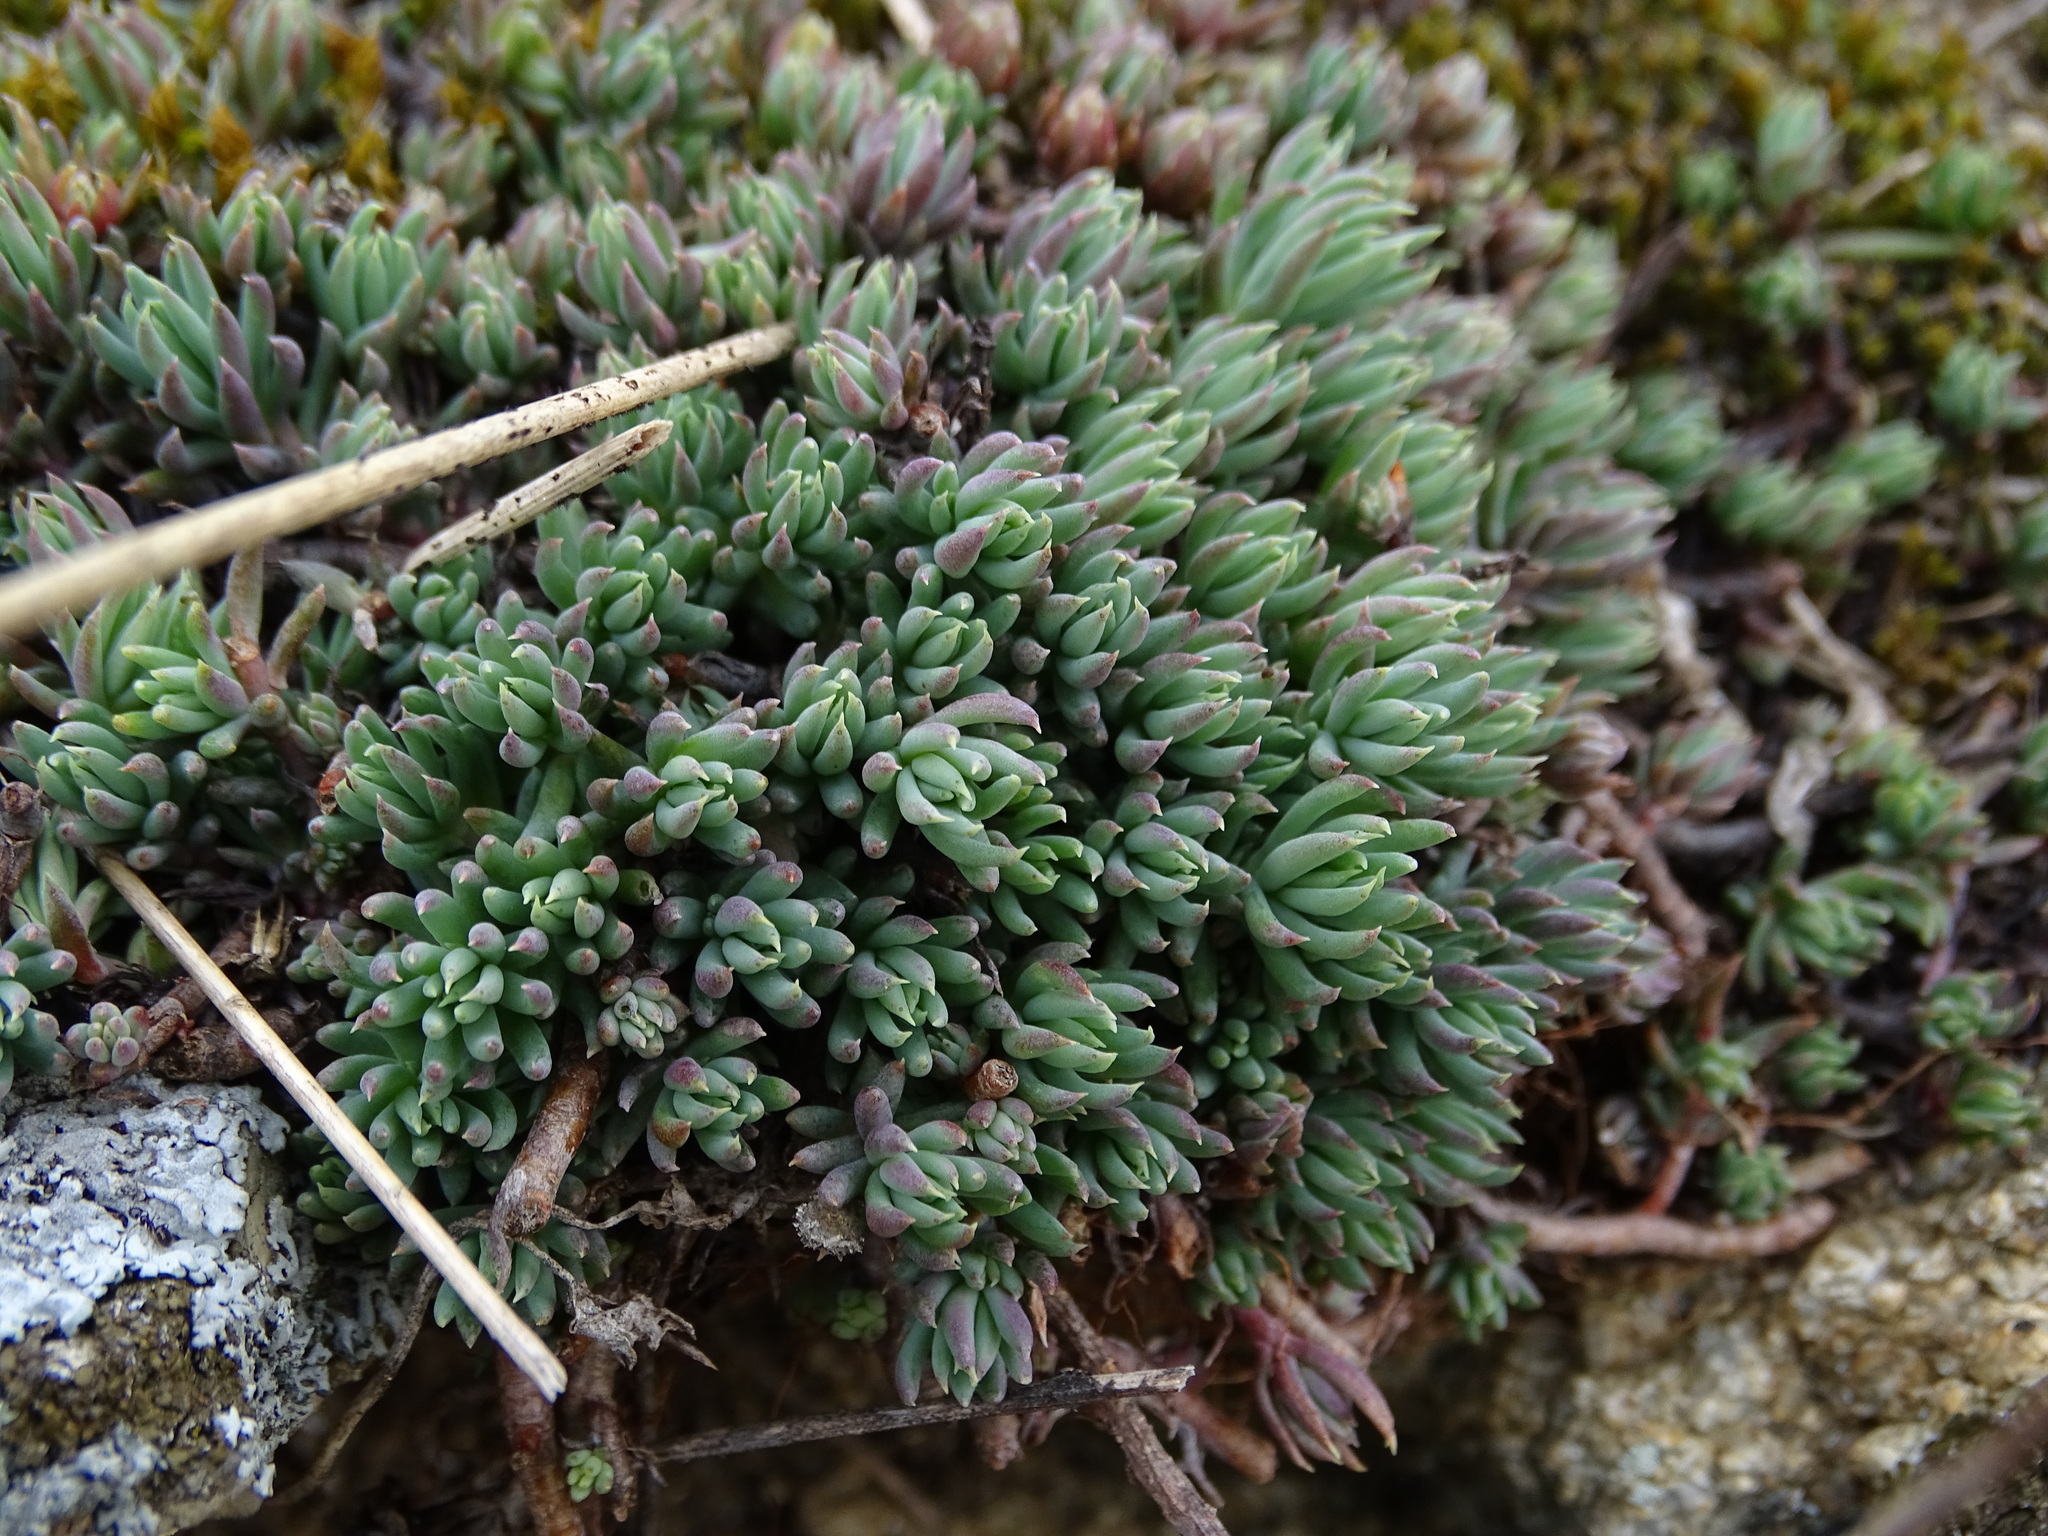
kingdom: Plantae
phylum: Tracheophyta
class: Magnoliopsida
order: Saxifragales
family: Crassulaceae
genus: Petrosedum
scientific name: Petrosedum rupestre
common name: Jenny's stonecrop
